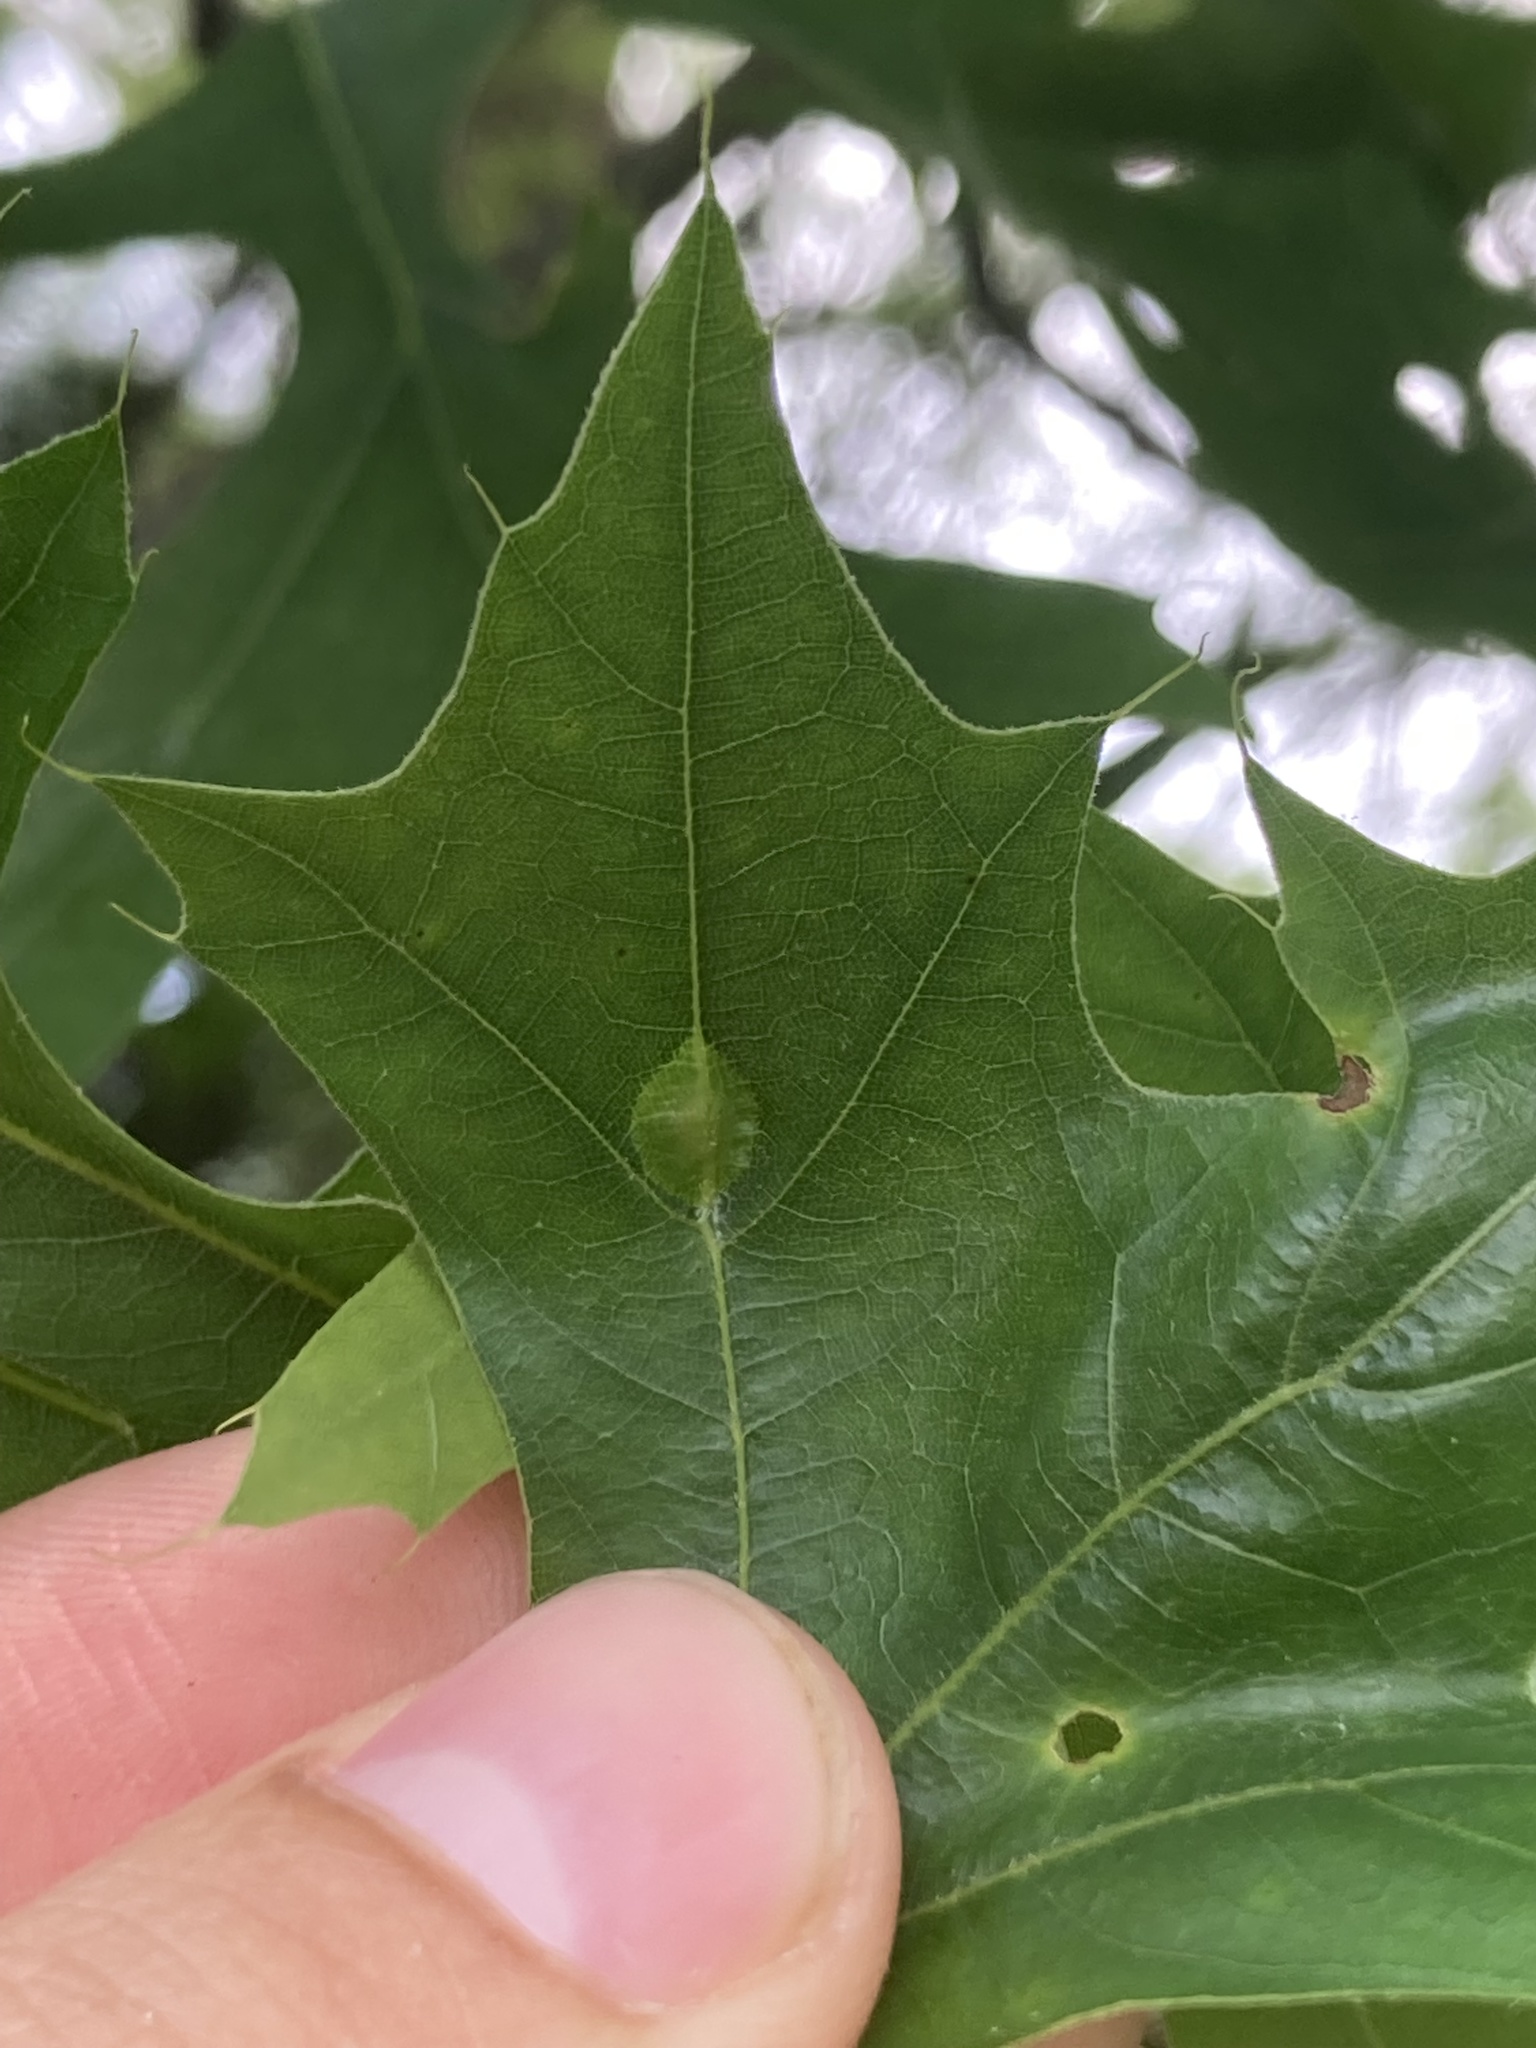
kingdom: Animalia
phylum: Arthropoda
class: Insecta
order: Diptera
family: Cecidomyiidae
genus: Polystepha
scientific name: Polystepha pilulae
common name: Oak leaf gall midge
